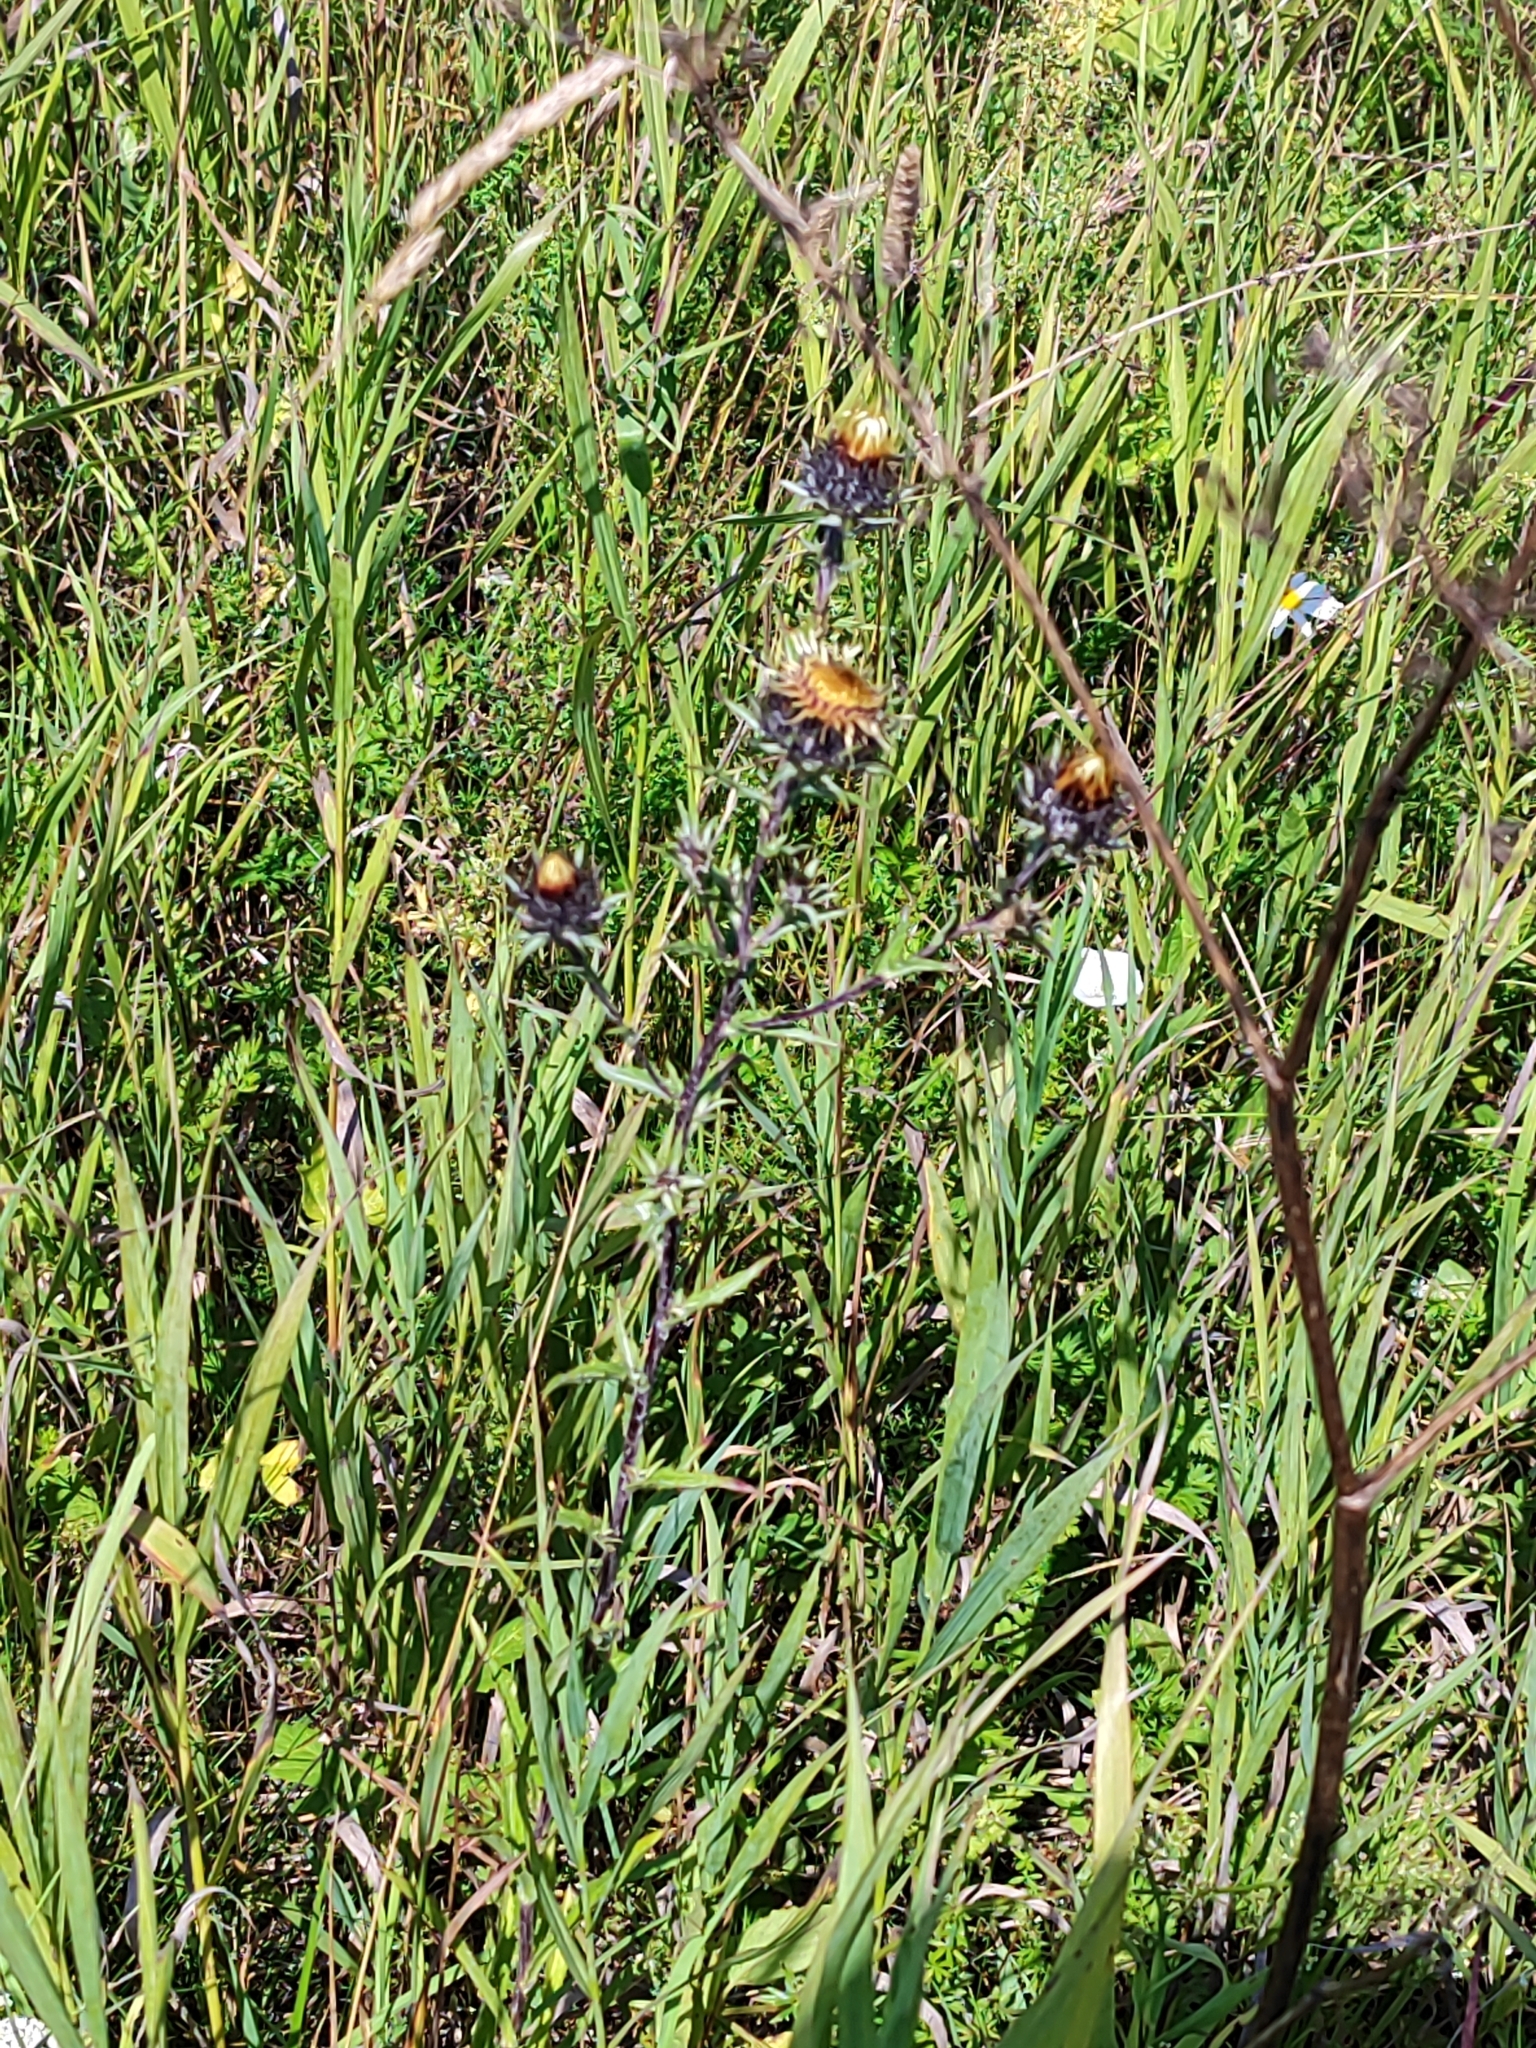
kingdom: Plantae
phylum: Tracheophyta
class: Magnoliopsida
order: Asterales
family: Asteraceae
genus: Carlina
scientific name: Carlina biebersteinii
